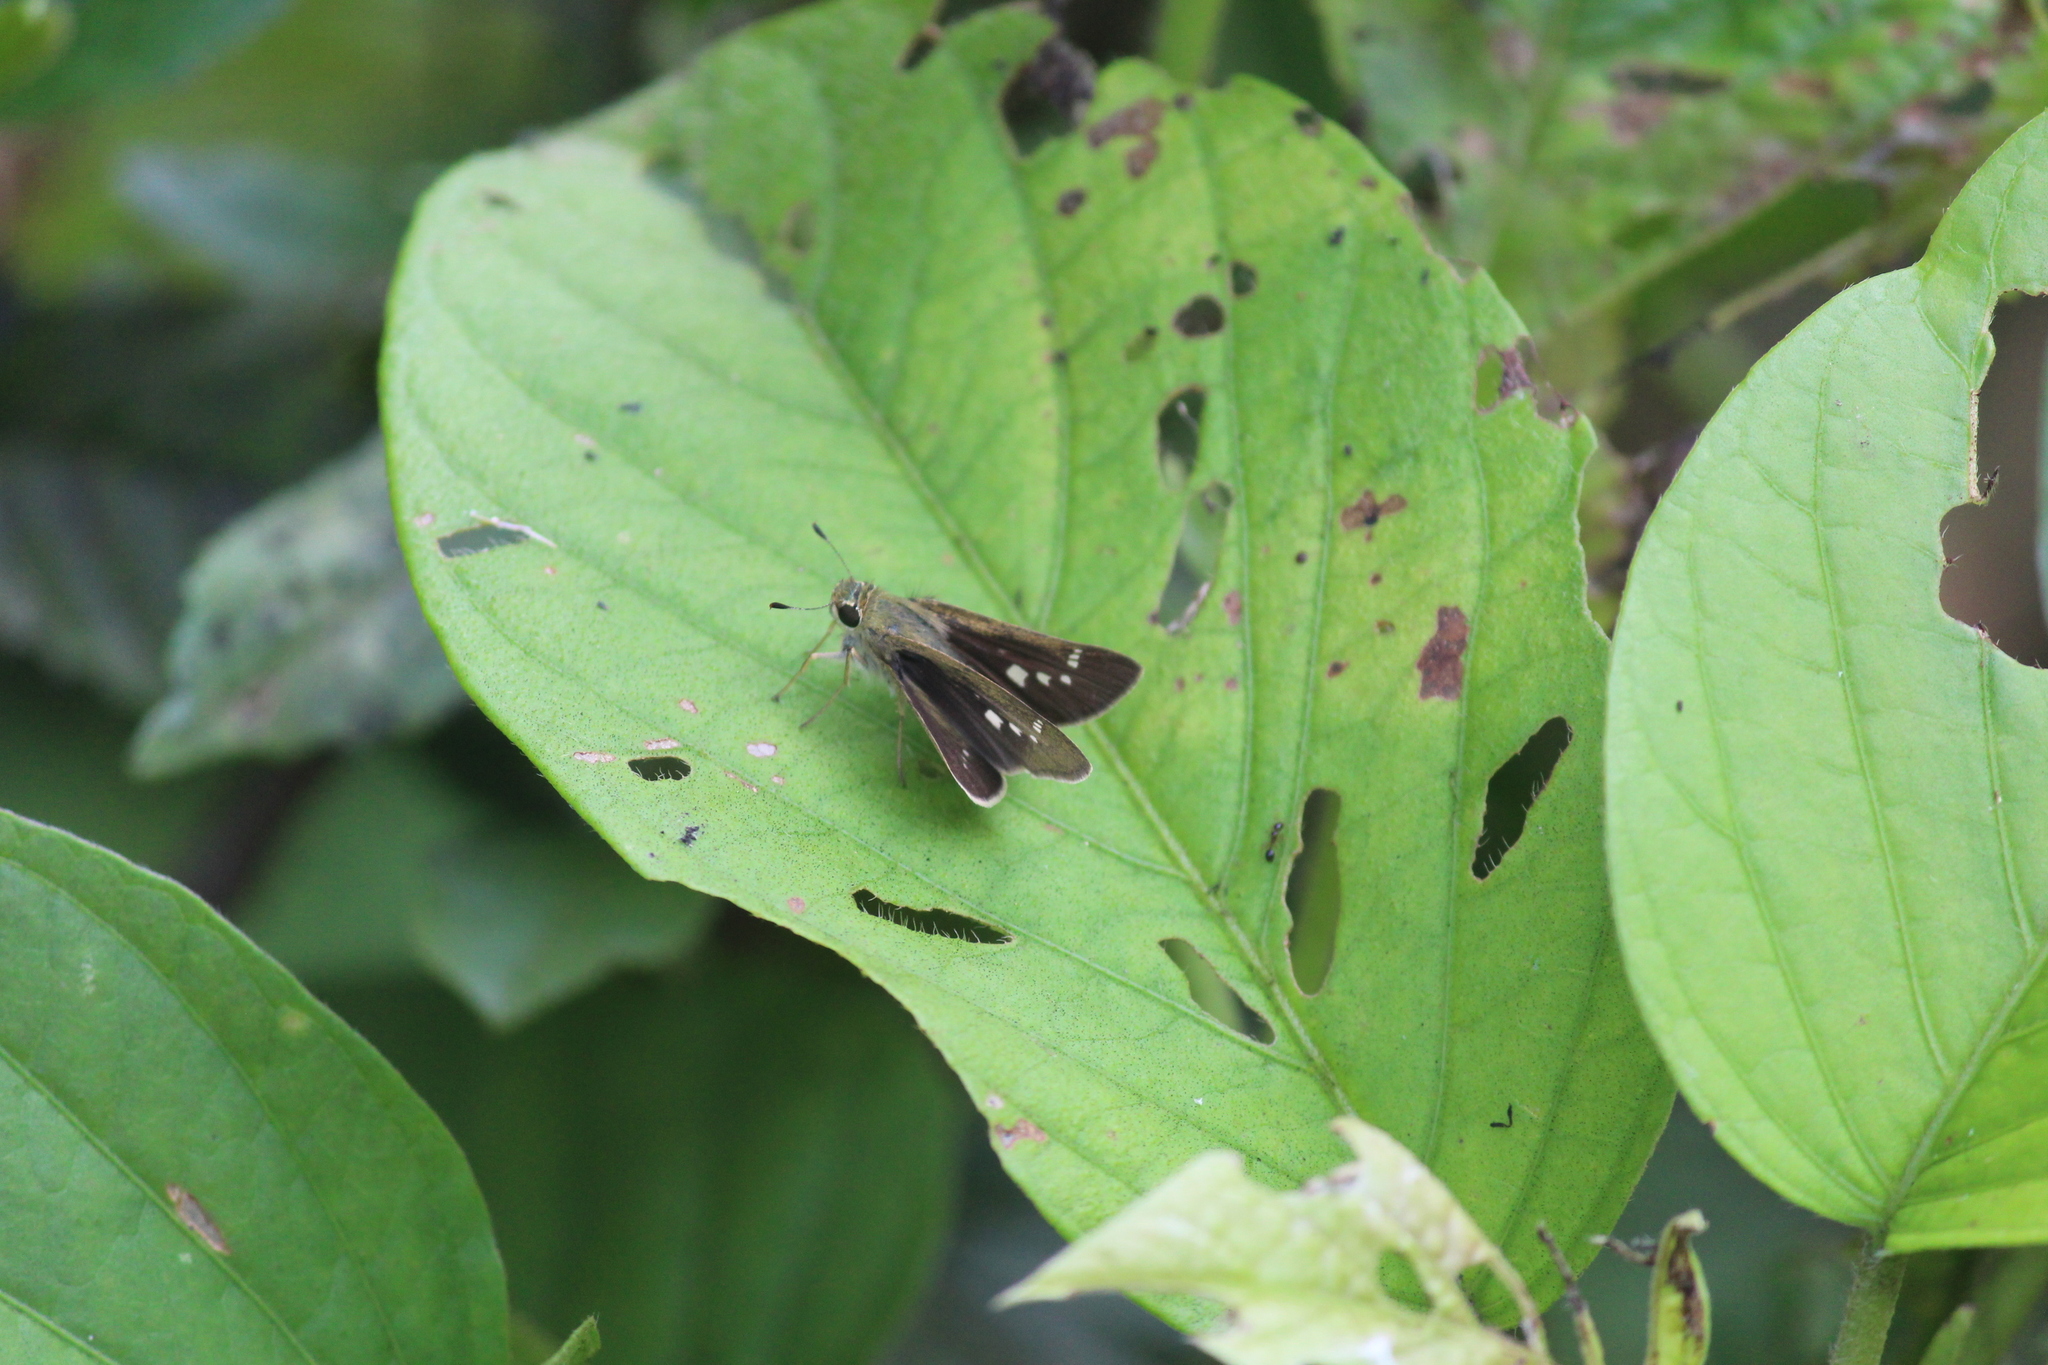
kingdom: Animalia
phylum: Arthropoda
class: Insecta
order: Lepidoptera
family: Hesperiidae
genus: Parnara
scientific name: Parnara naso
